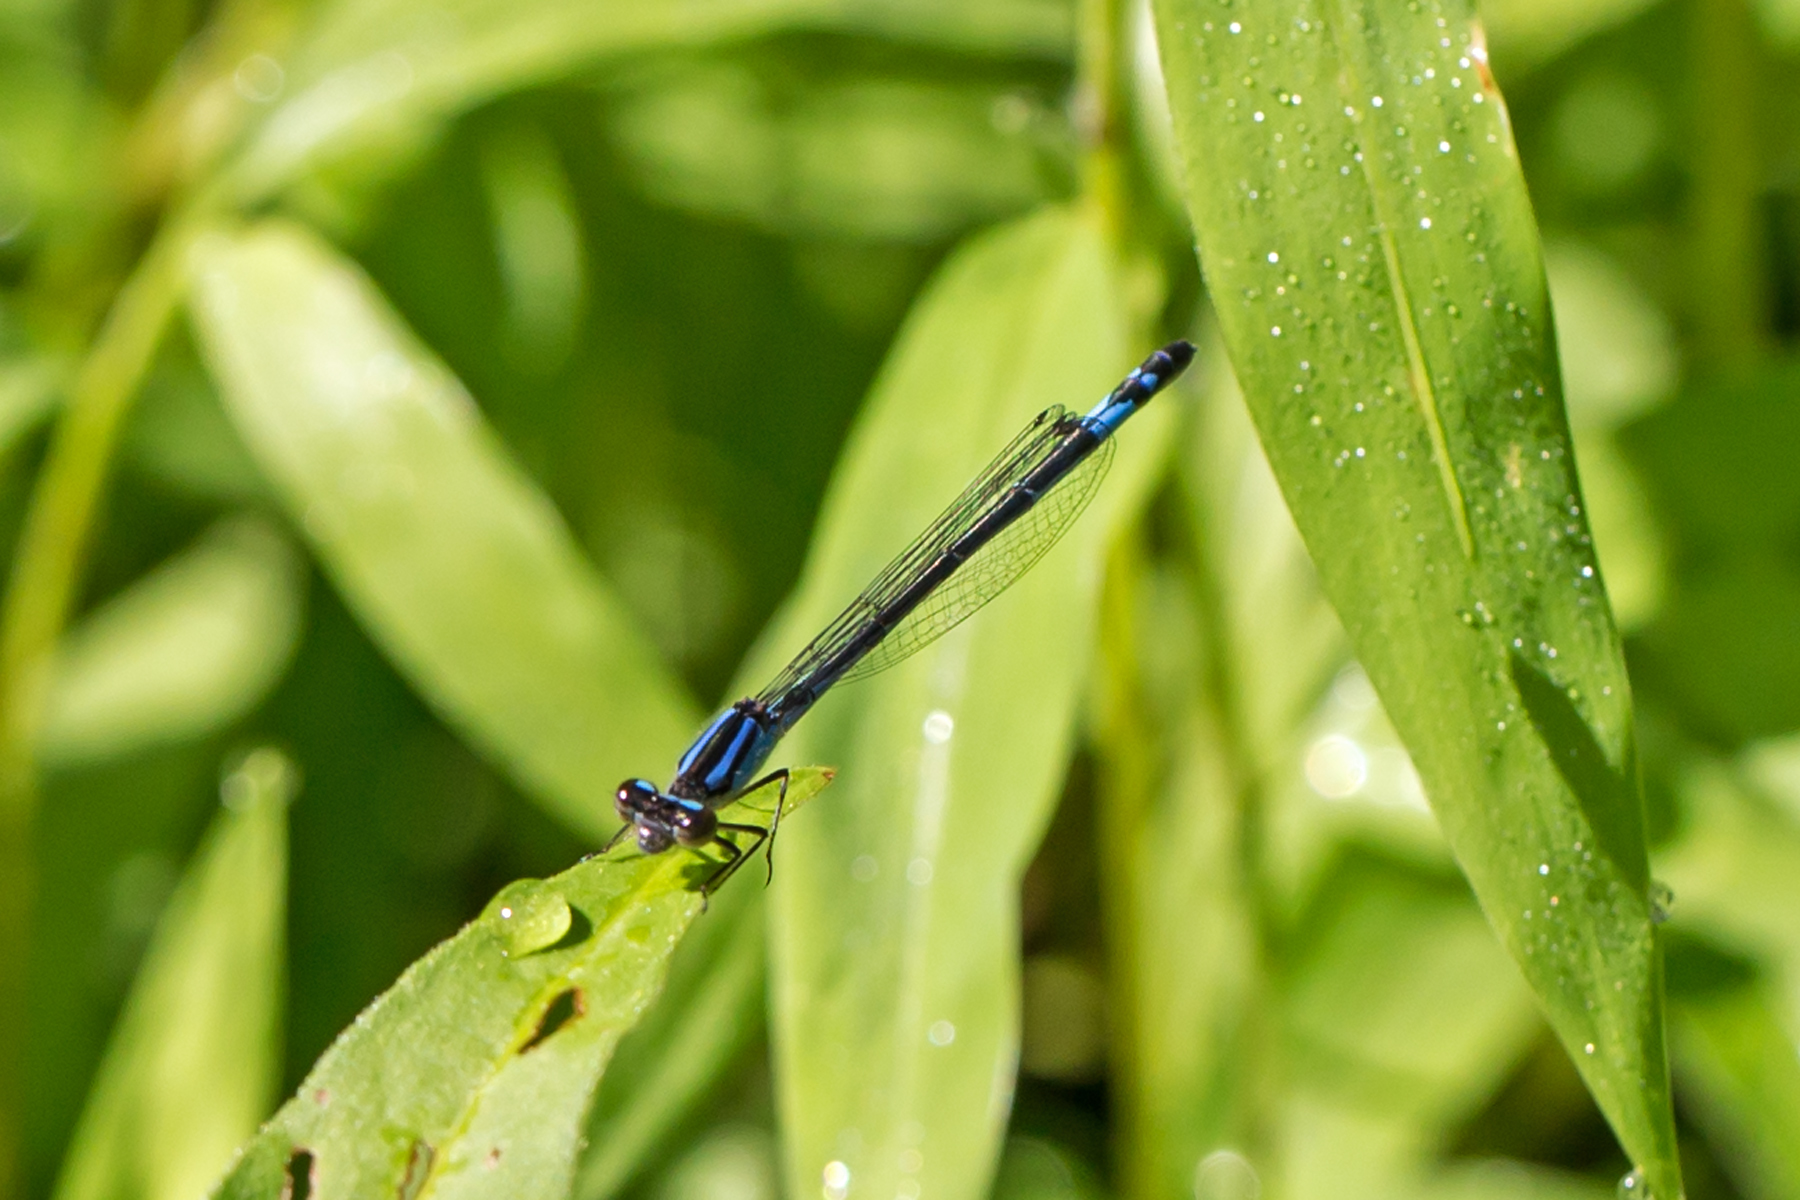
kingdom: Animalia
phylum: Arthropoda
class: Insecta
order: Odonata
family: Coenagrionidae
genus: Enallagma
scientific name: Enallagma aspersum
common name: Azure bluet
